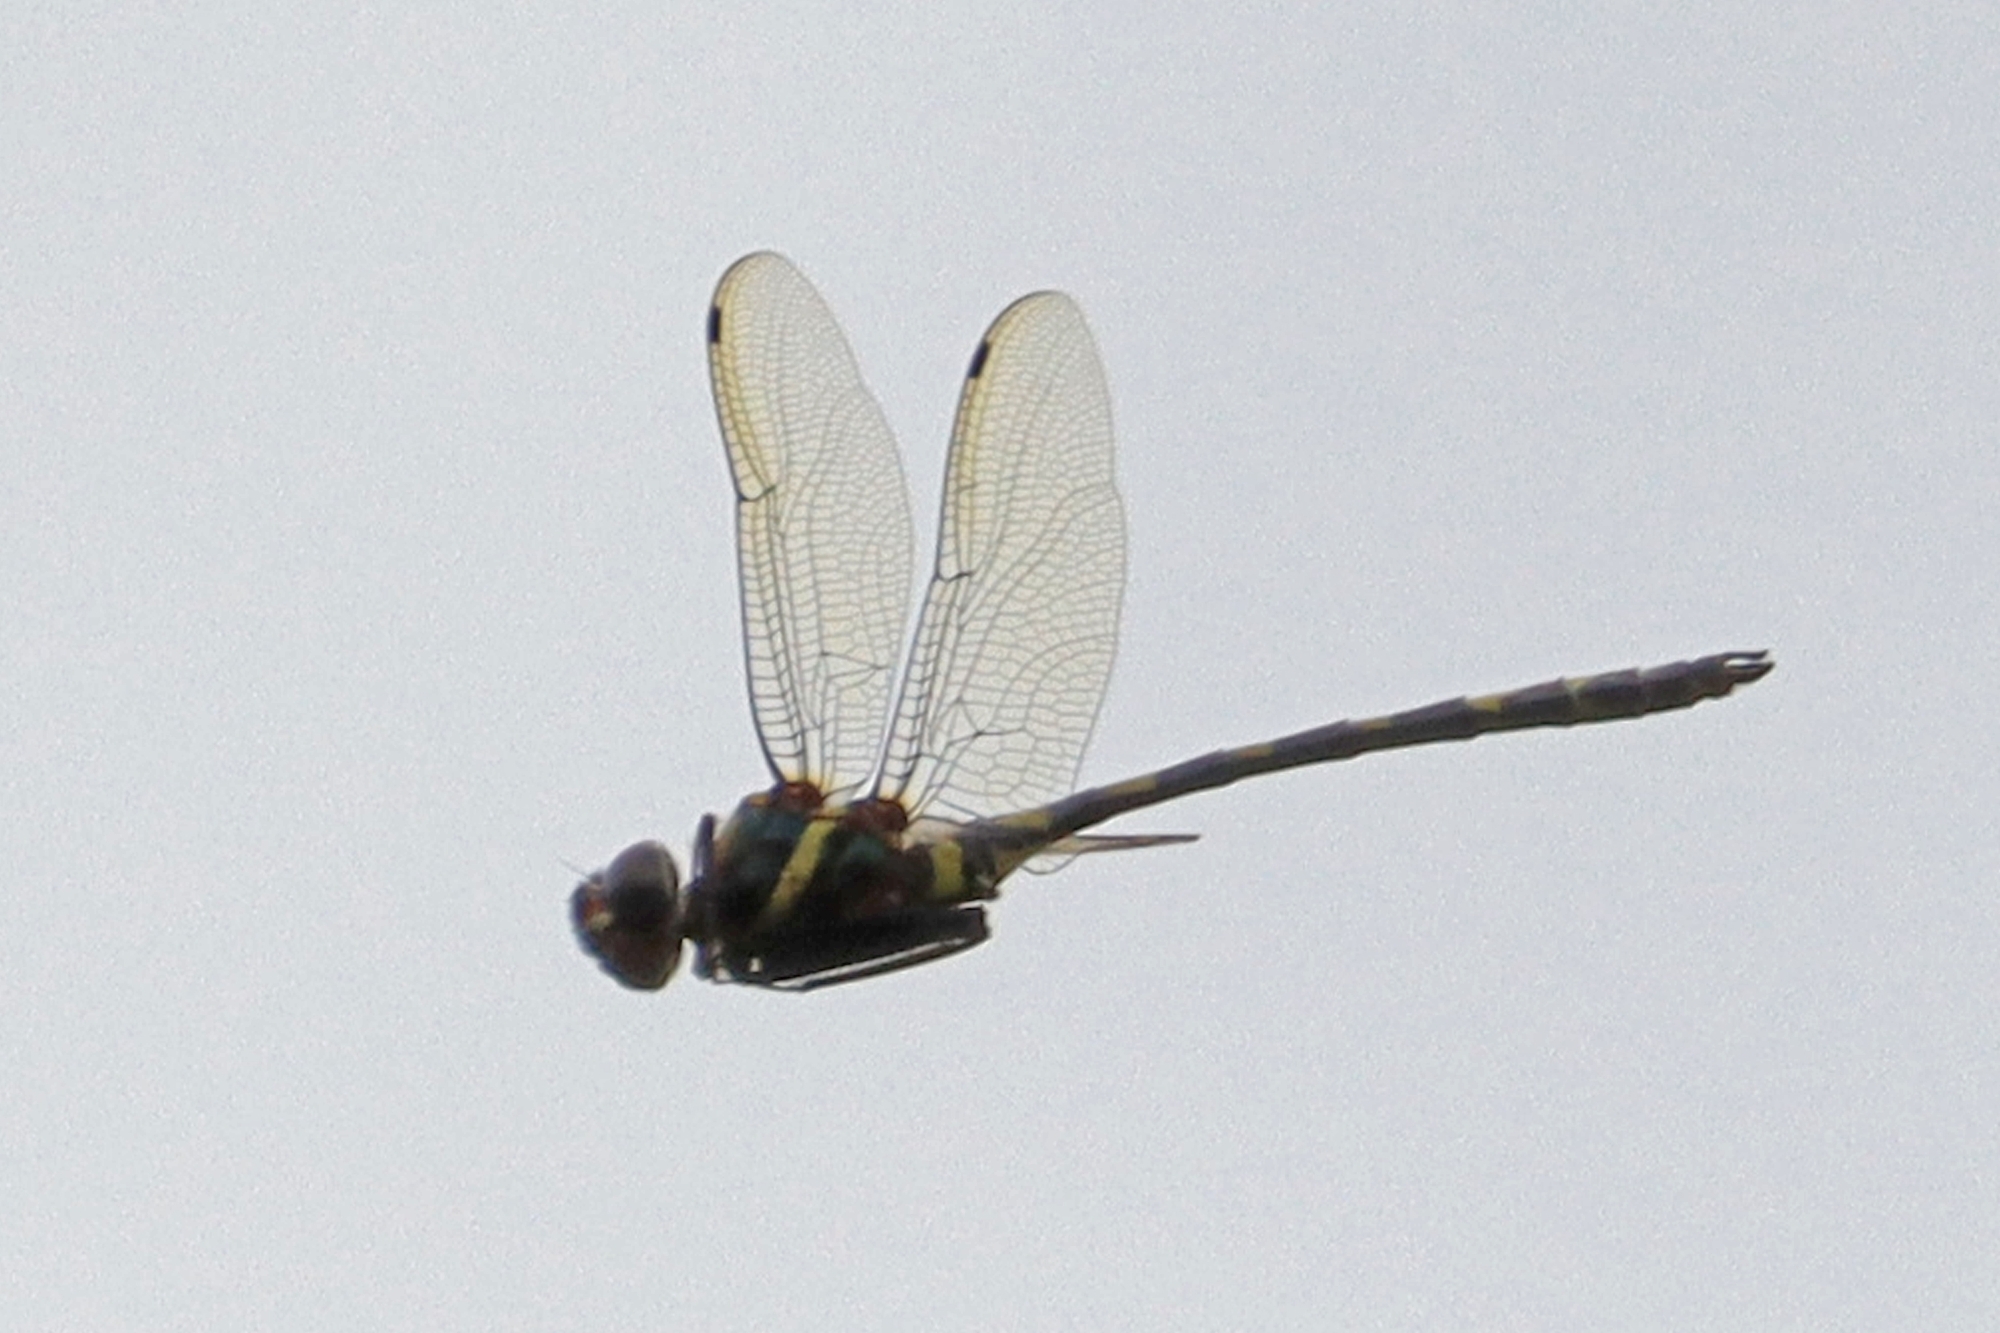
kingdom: Animalia
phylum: Arthropoda
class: Insecta
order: Odonata
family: Macromiidae
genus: Macromia
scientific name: Macromia pacifica
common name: Gilded river cruiser
